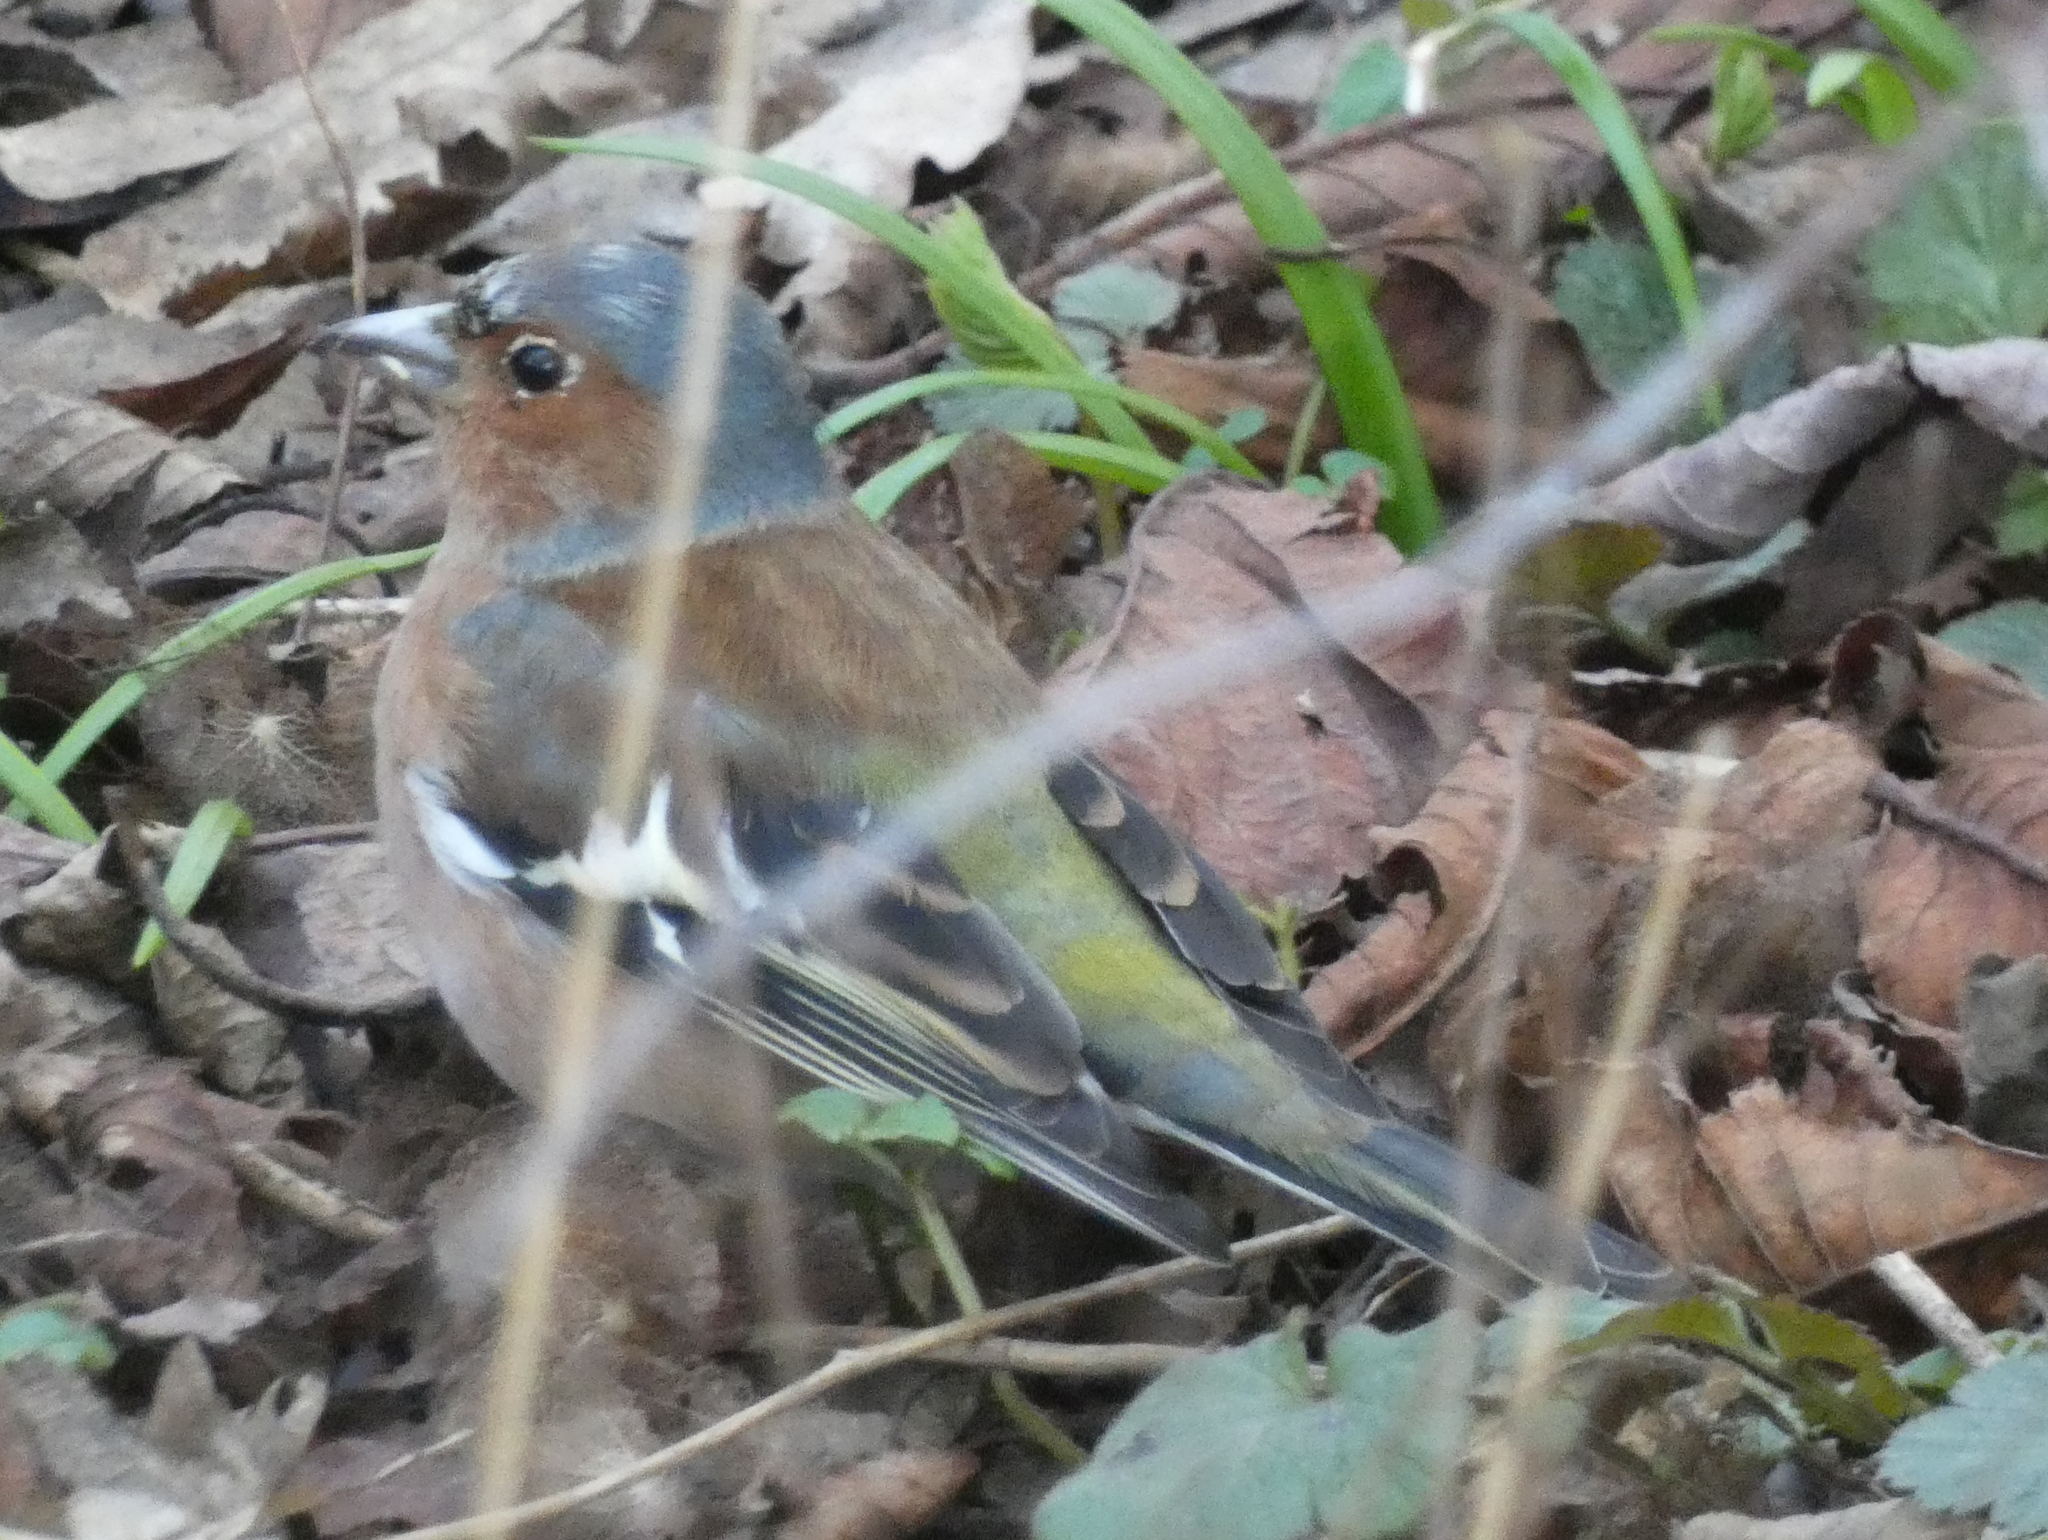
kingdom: Animalia
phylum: Chordata
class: Aves
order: Passeriformes
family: Fringillidae
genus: Fringilla
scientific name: Fringilla coelebs
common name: Common chaffinch
